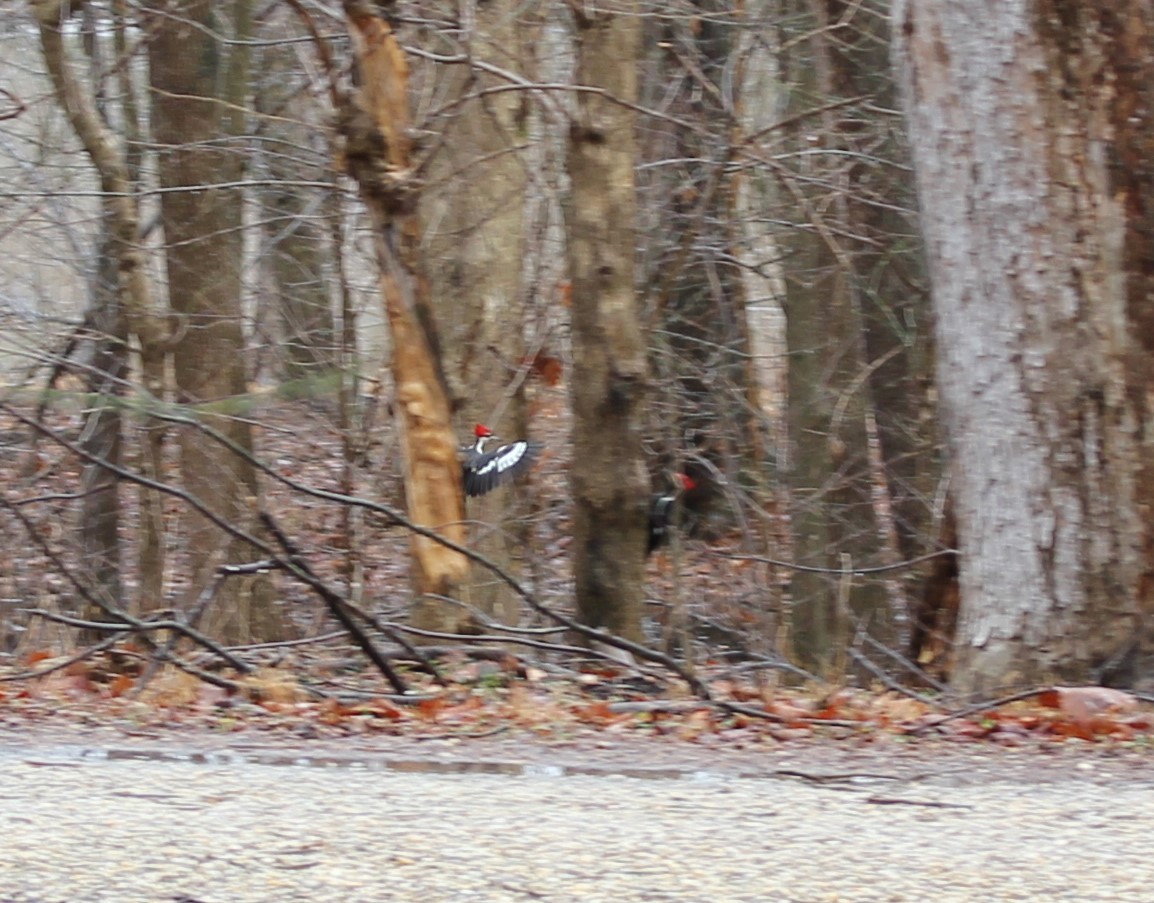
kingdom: Animalia
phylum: Chordata
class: Aves
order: Piciformes
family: Picidae
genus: Dryocopus
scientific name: Dryocopus pileatus
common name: Pileated woodpecker
